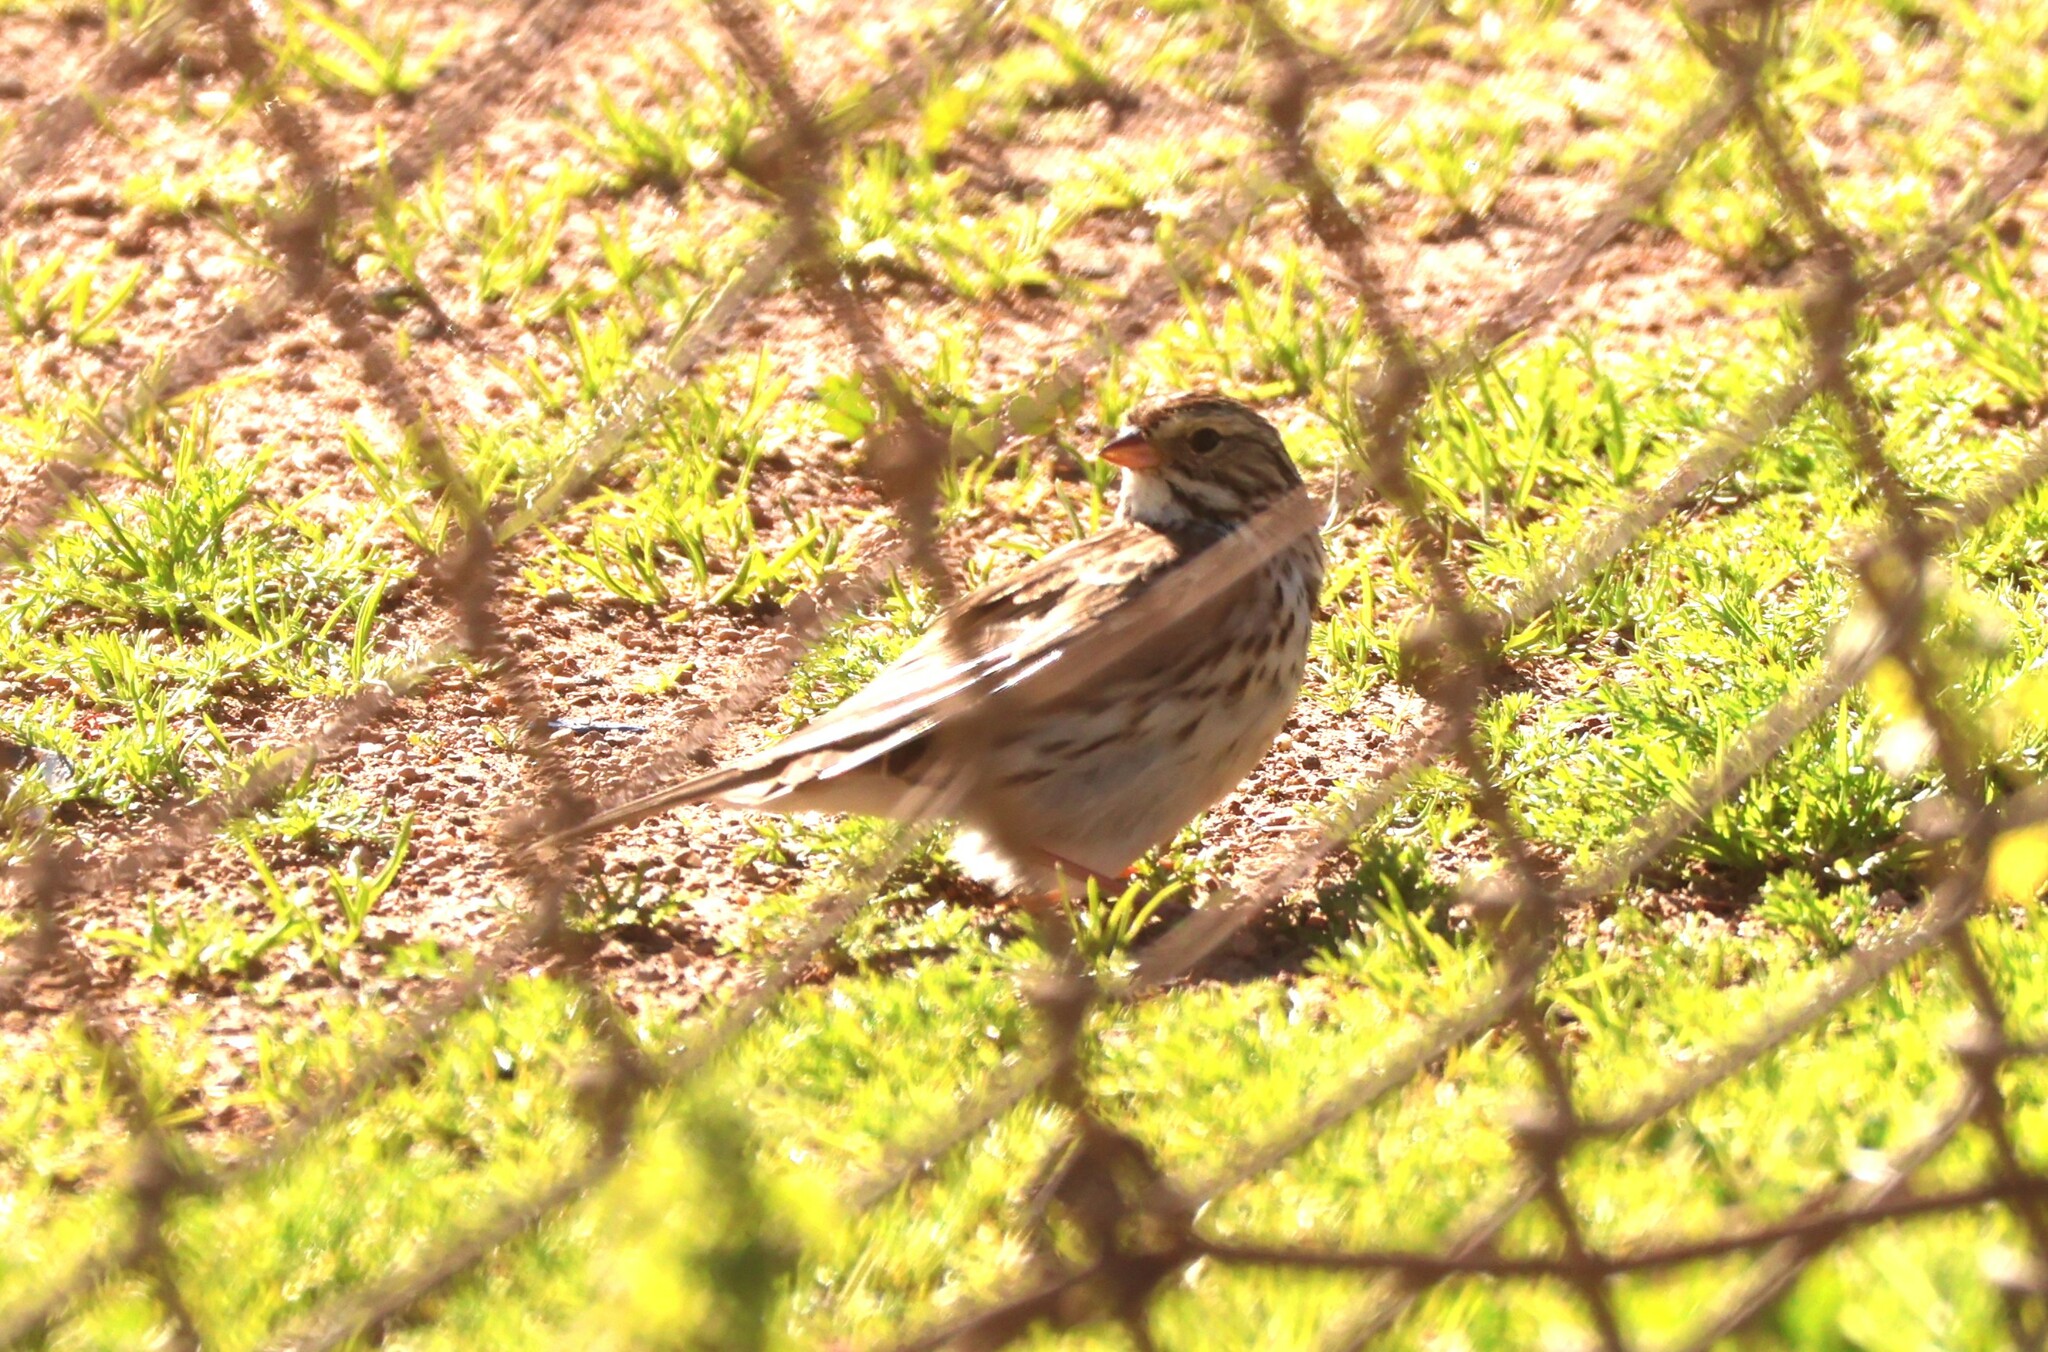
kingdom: Animalia
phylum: Chordata
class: Aves
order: Passeriformes
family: Passerellidae
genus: Passerculus
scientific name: Passerculus sandwichensis
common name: Savannah sparrow
